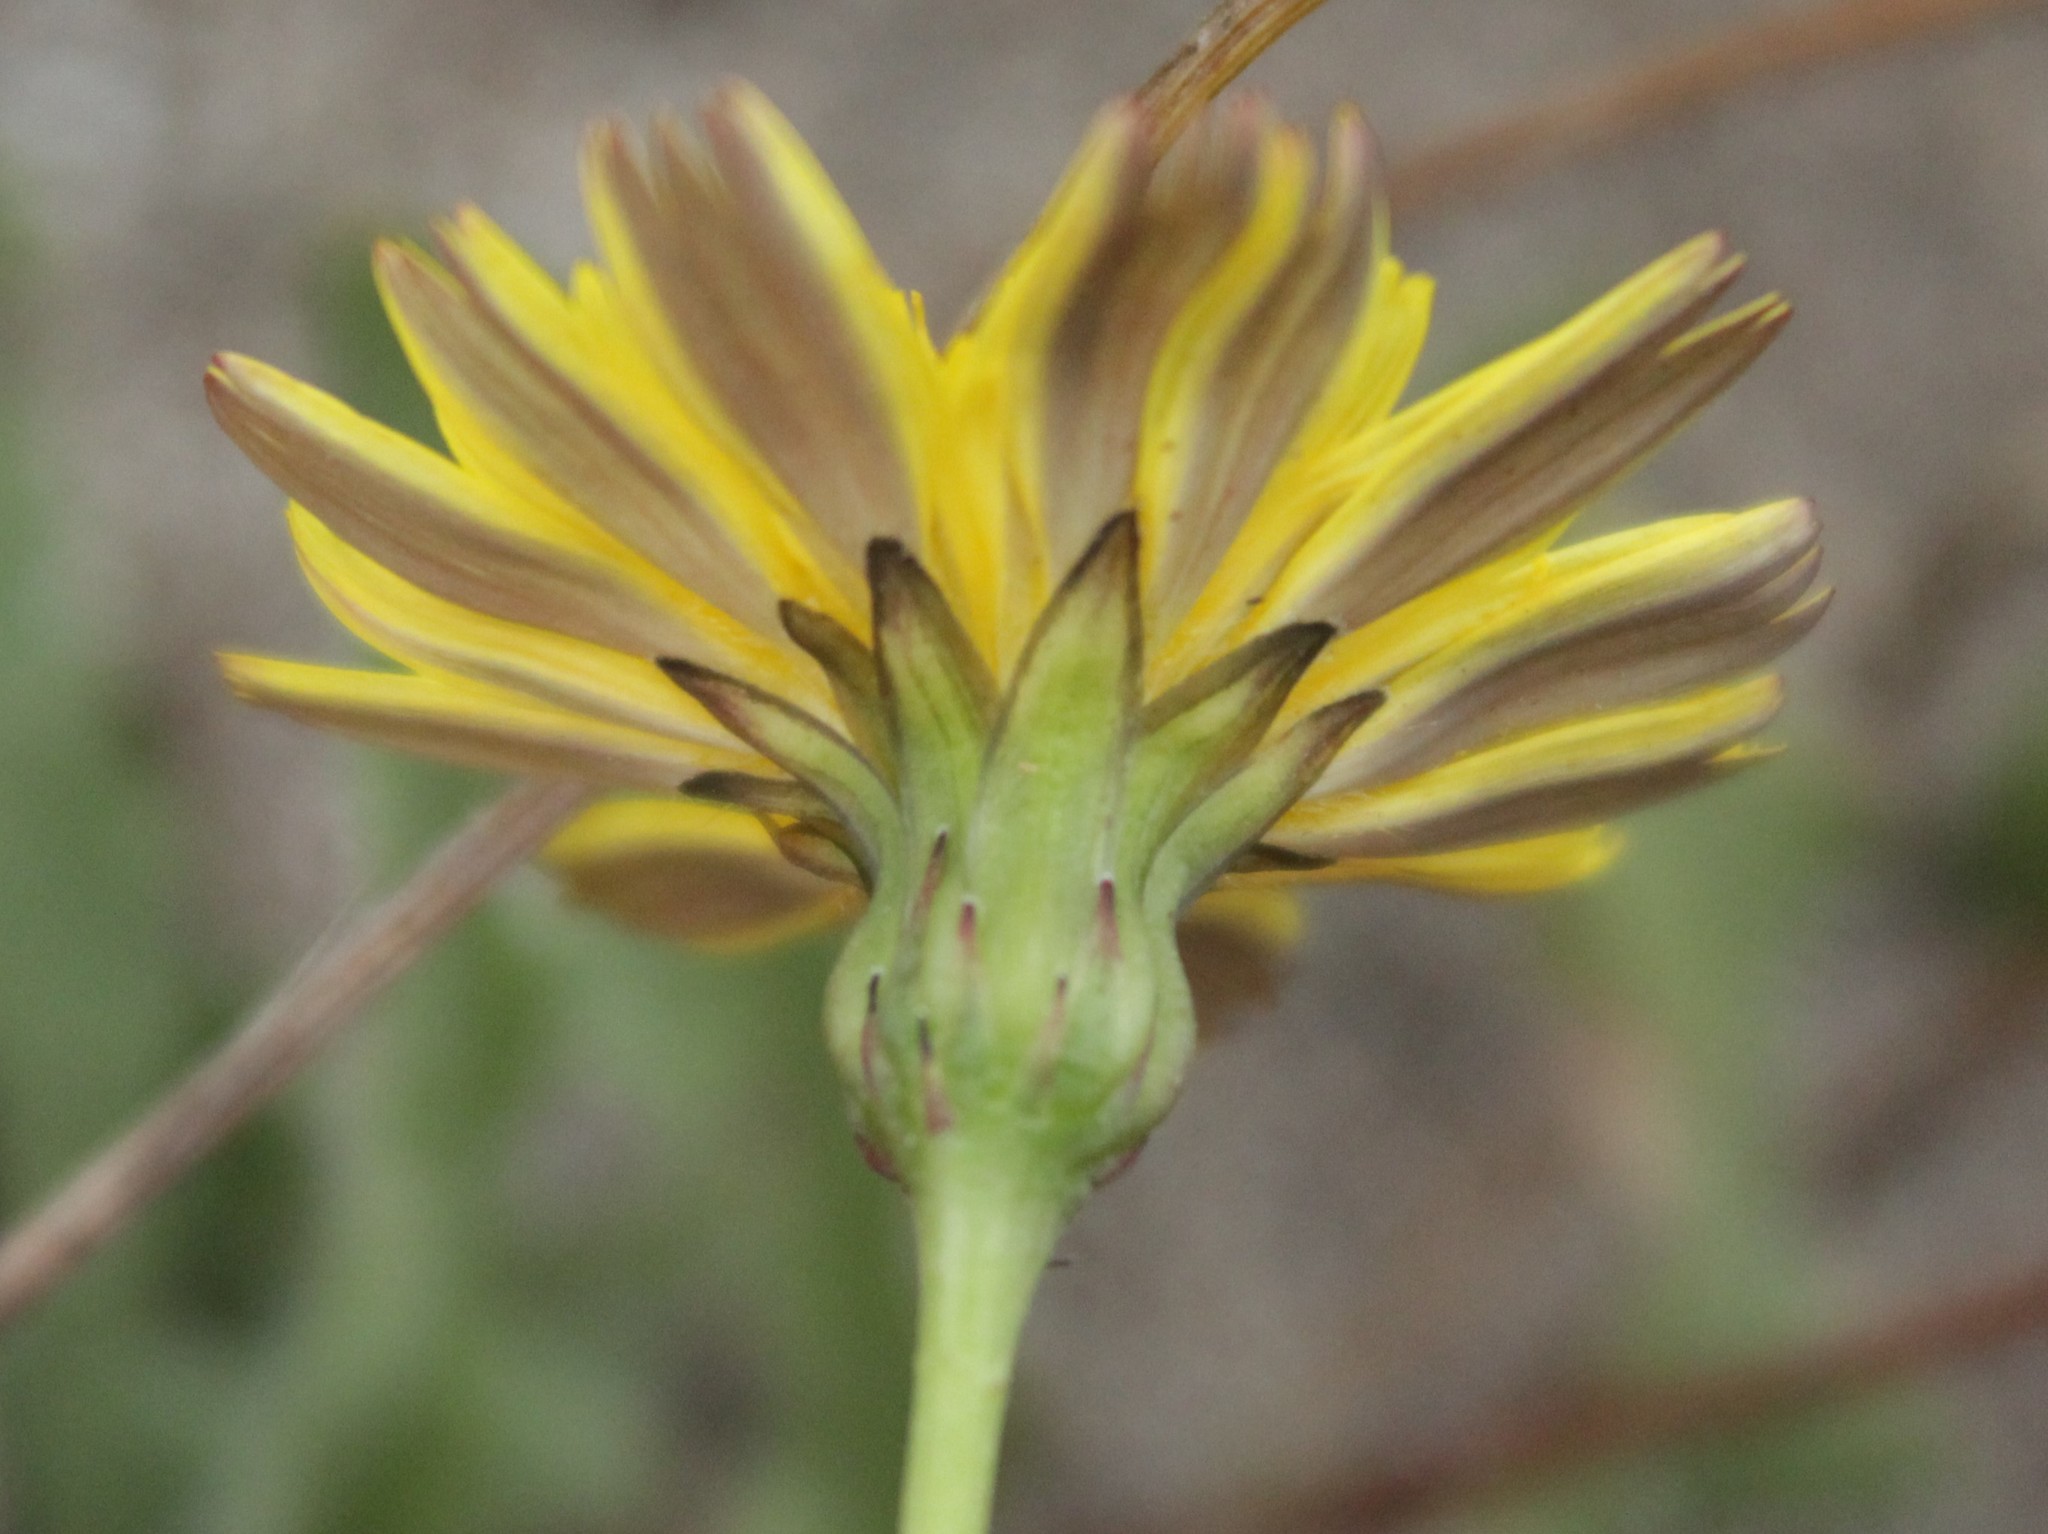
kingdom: Plantae
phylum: Tracheophyta
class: Magnoliopsida
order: Asterales
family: Asteraceae
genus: Thrincia
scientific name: Thrincia saxatilis
